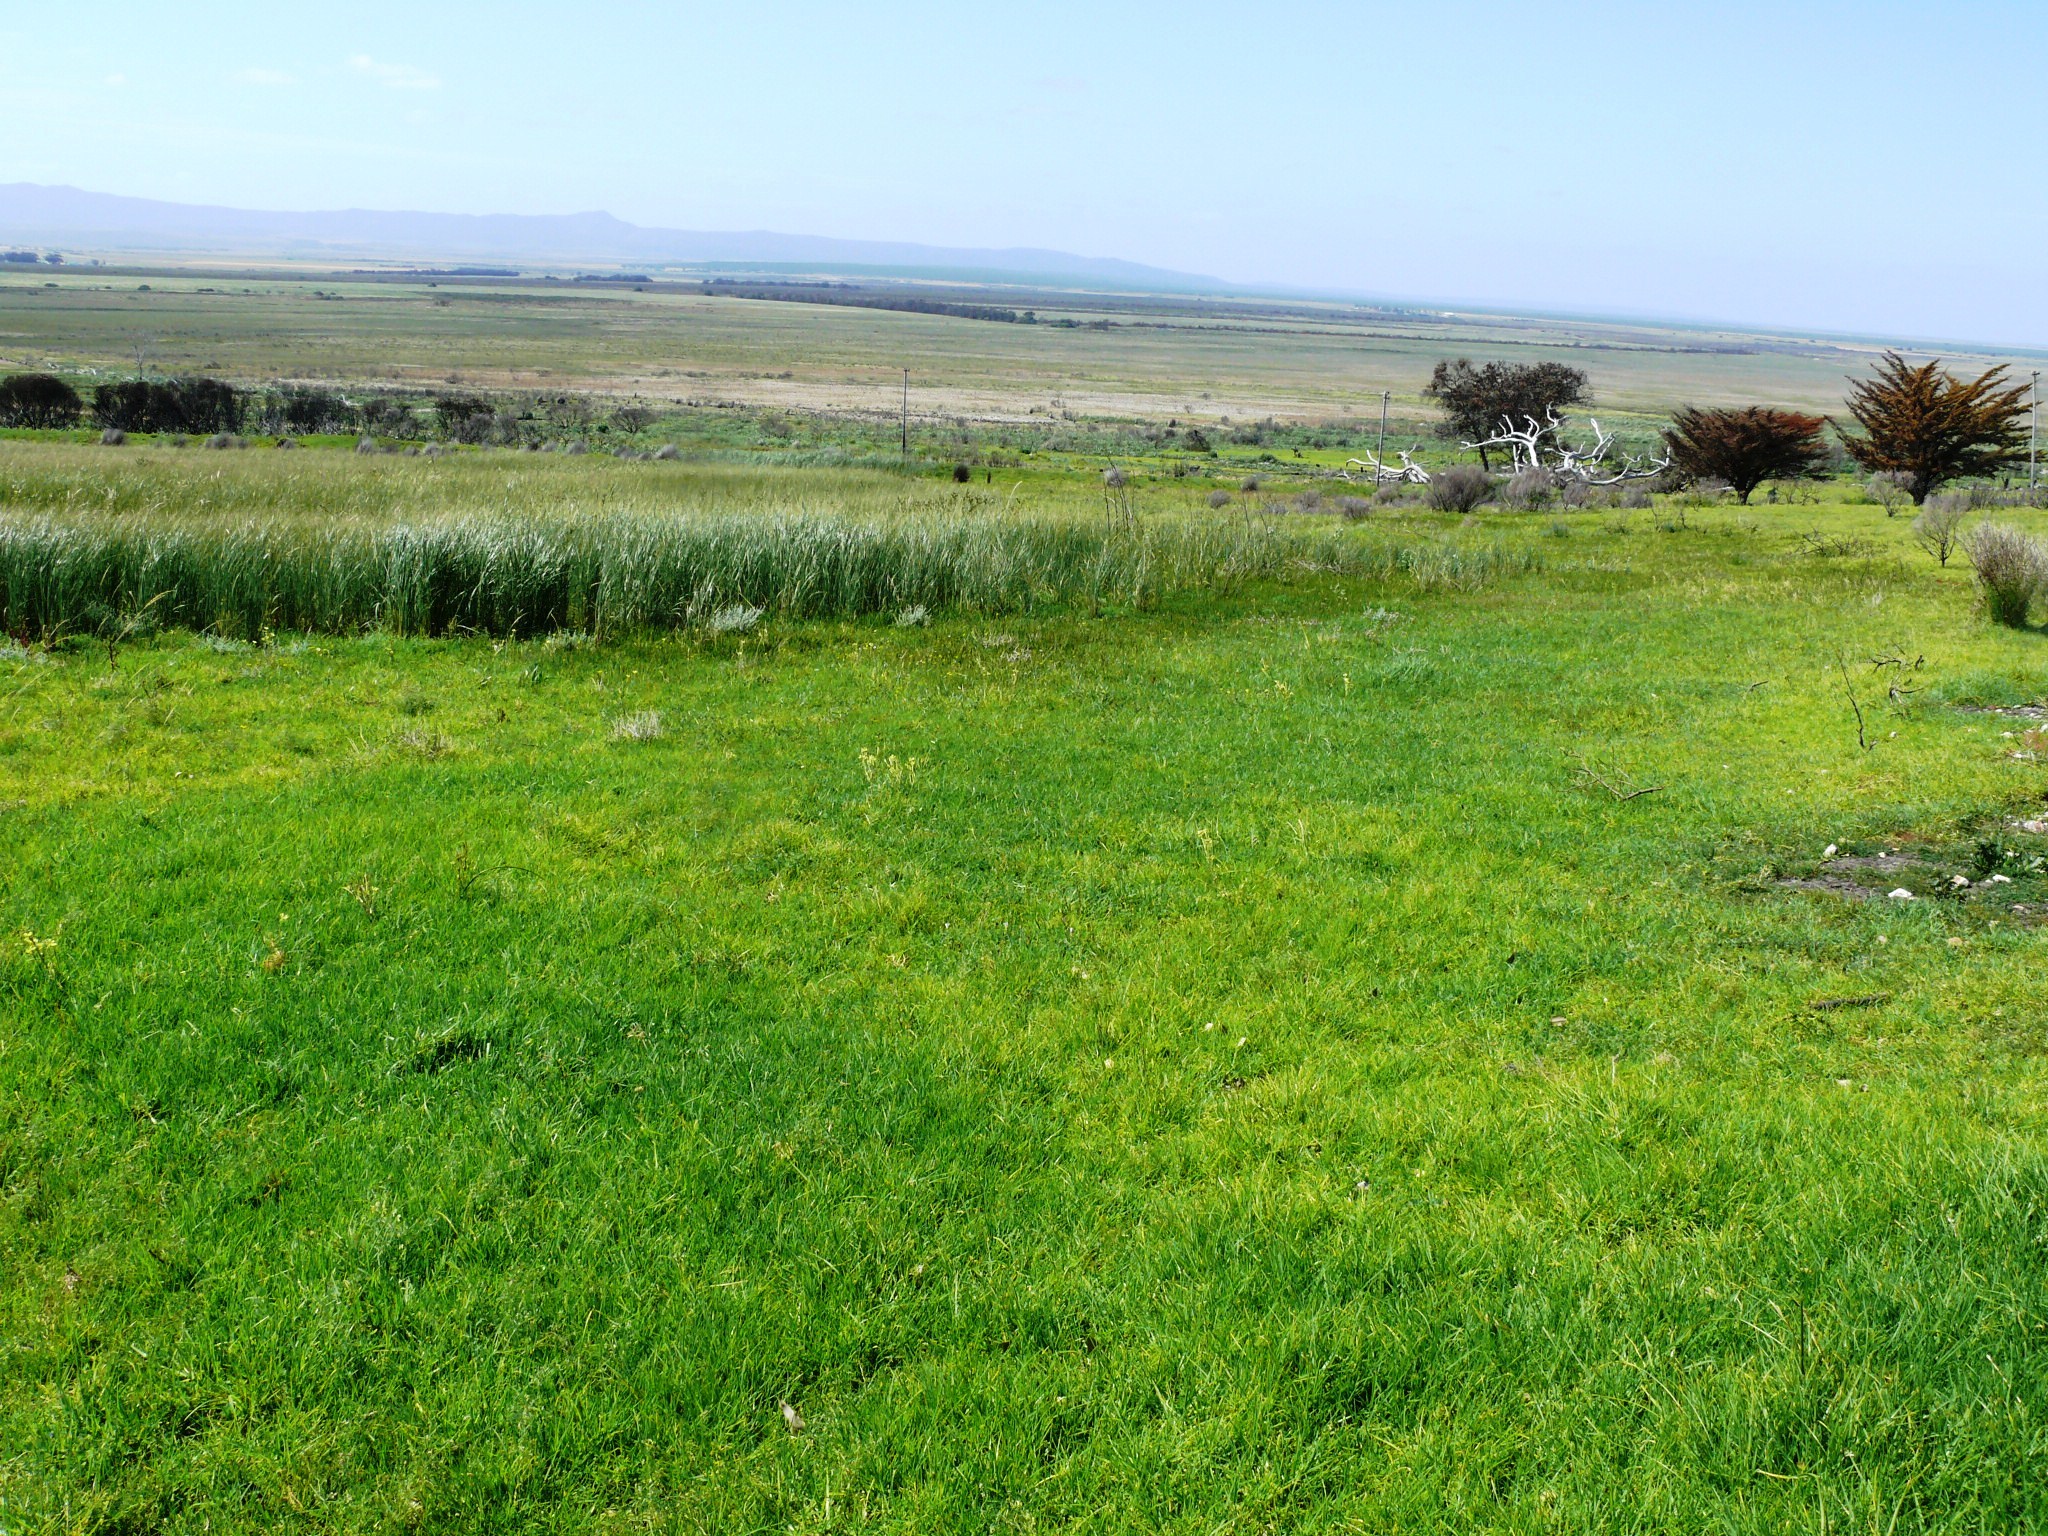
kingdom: Plantae
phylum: Tracheophyta
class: Liliopsida
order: Poales
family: Poaceae
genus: Cenchrus
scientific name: Cenchrus clandestinus
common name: Kikuyugrass
